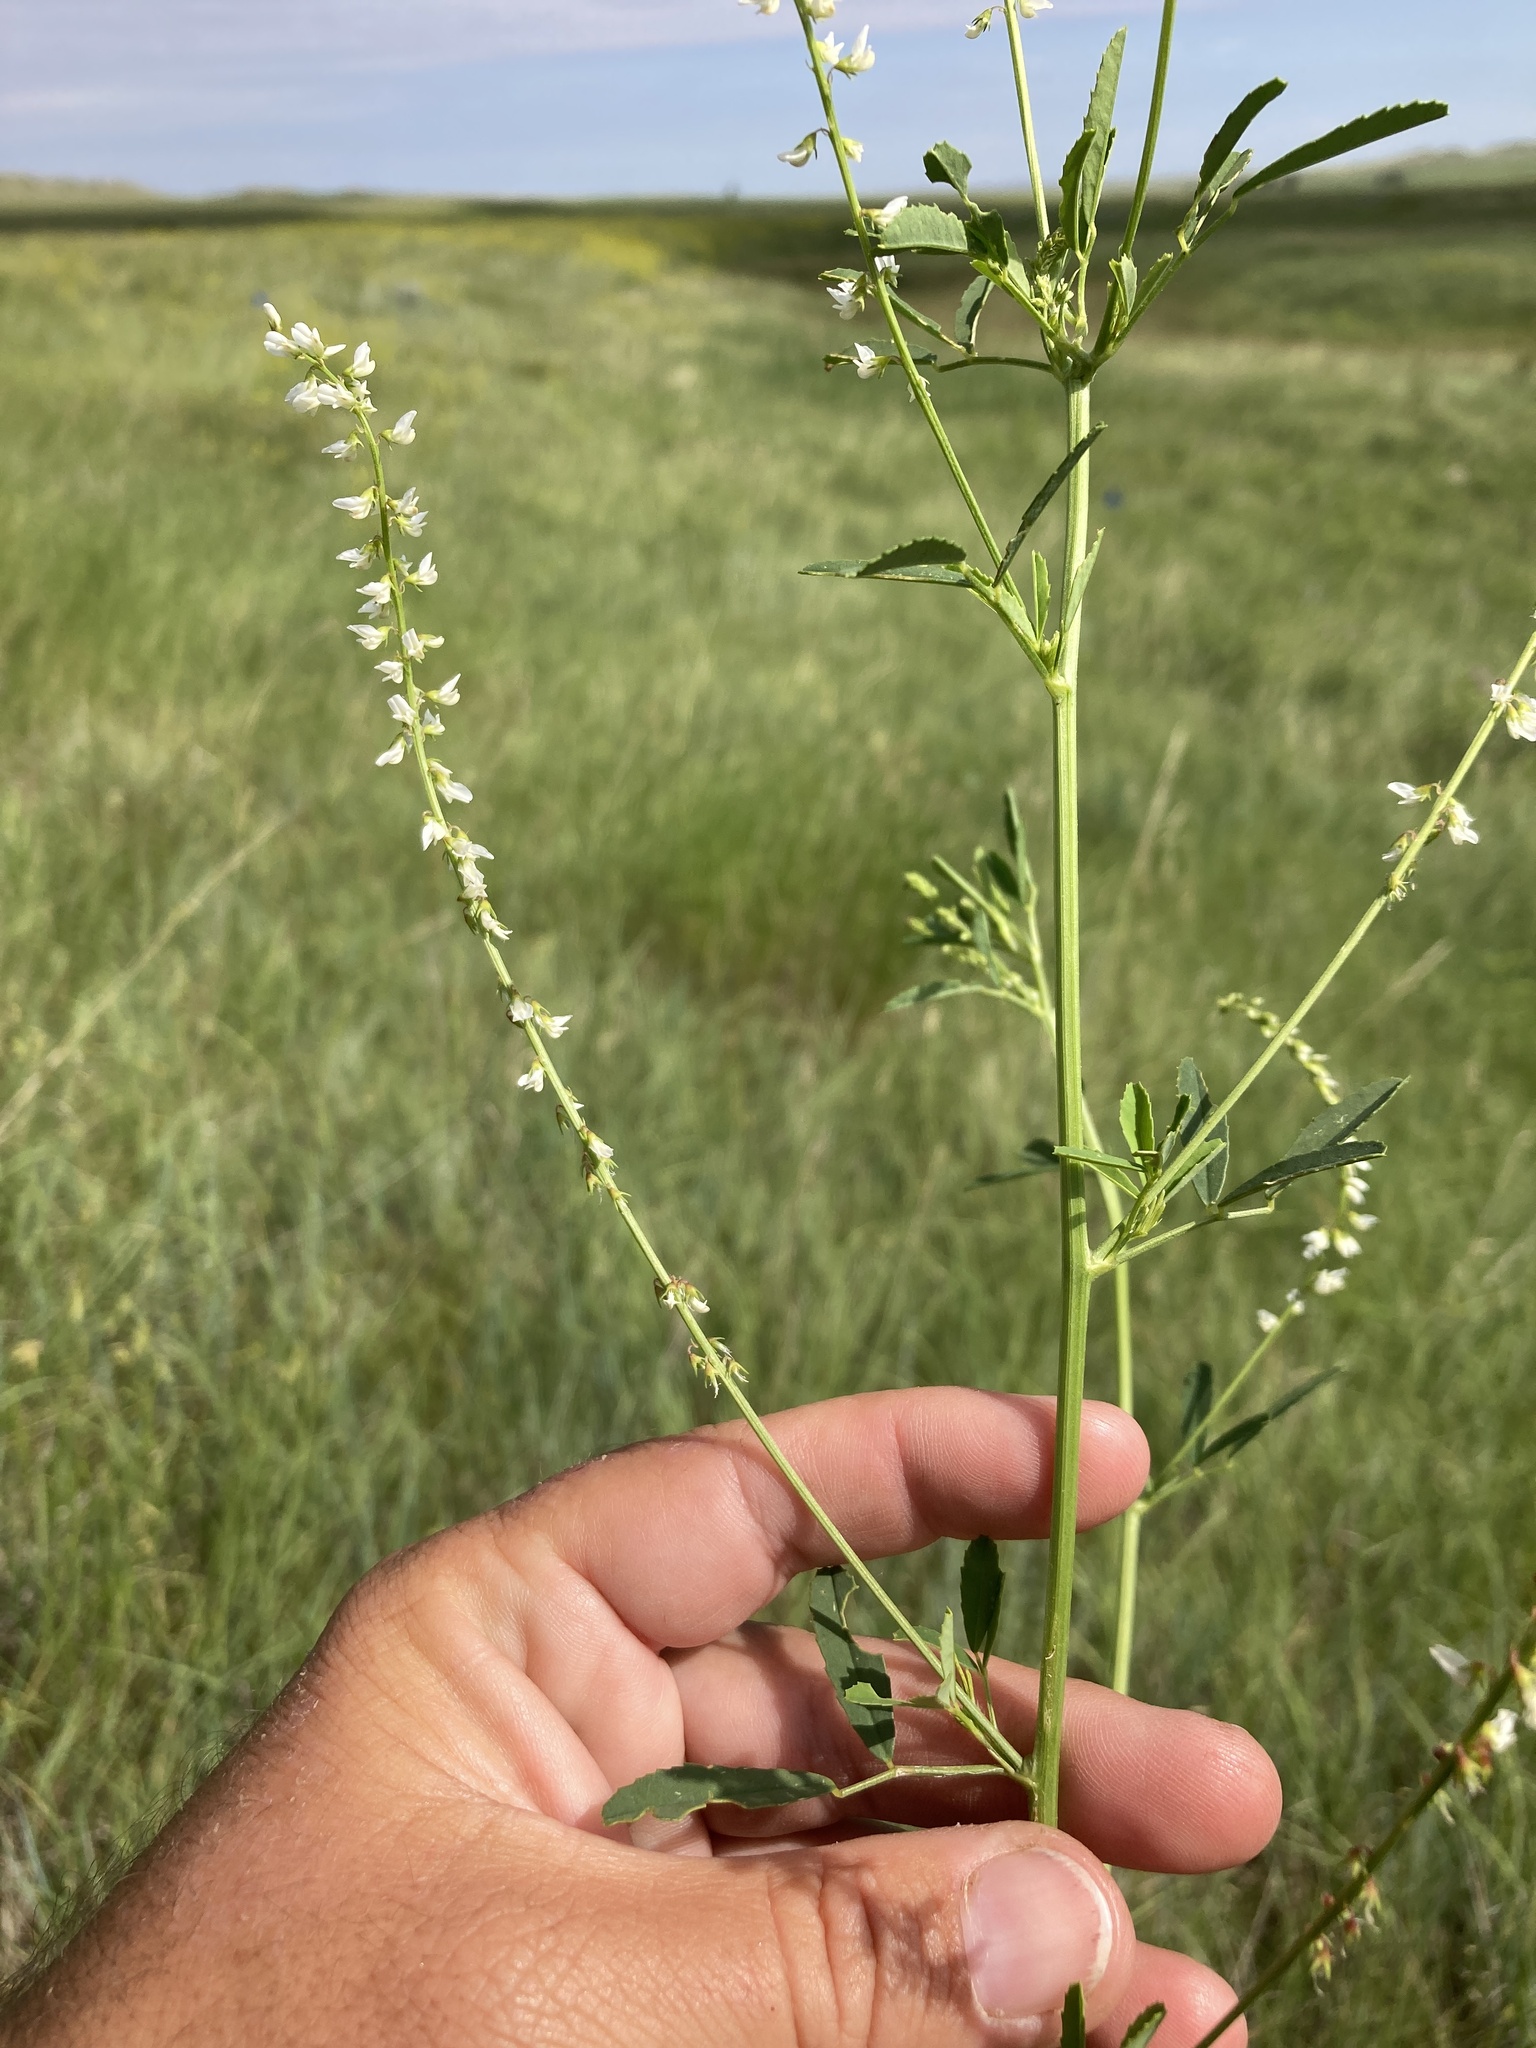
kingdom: Plantae
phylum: Tracheophyta
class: Magnoliopsida
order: Fabales
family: Fabaceae
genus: Melilotus
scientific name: Melilotus albus
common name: White melilot
